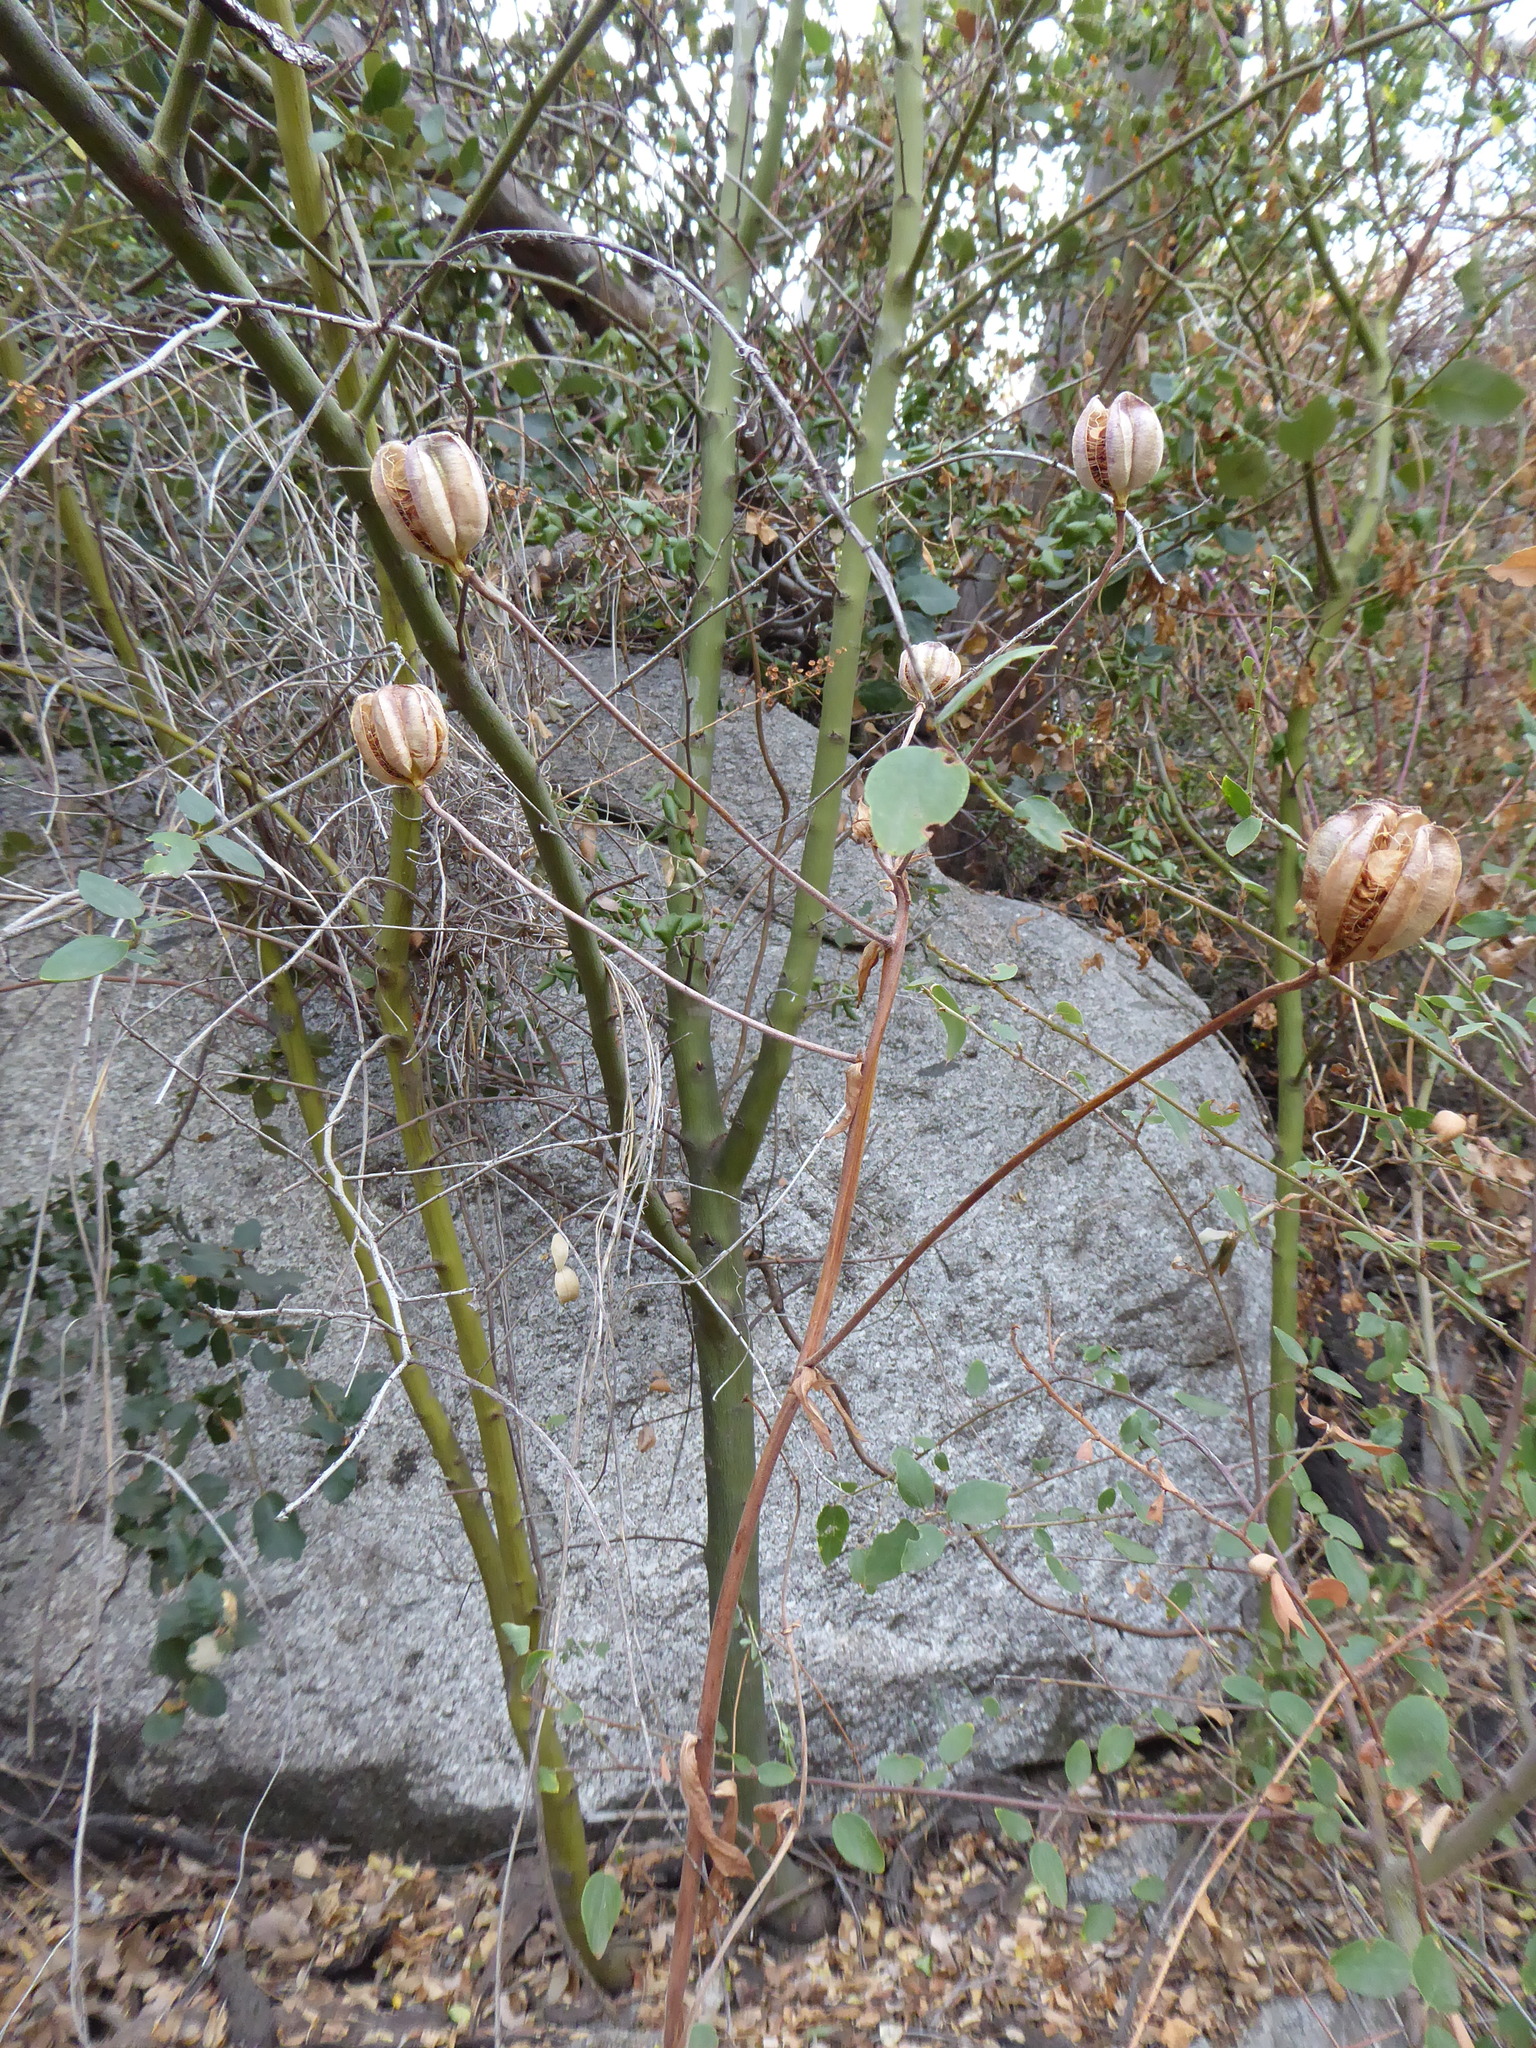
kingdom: Plantae
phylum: Tracheophyta
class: Liliopsida
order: Liliales
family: Liliaceae
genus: Lilium
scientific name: Lilium humboldtii
